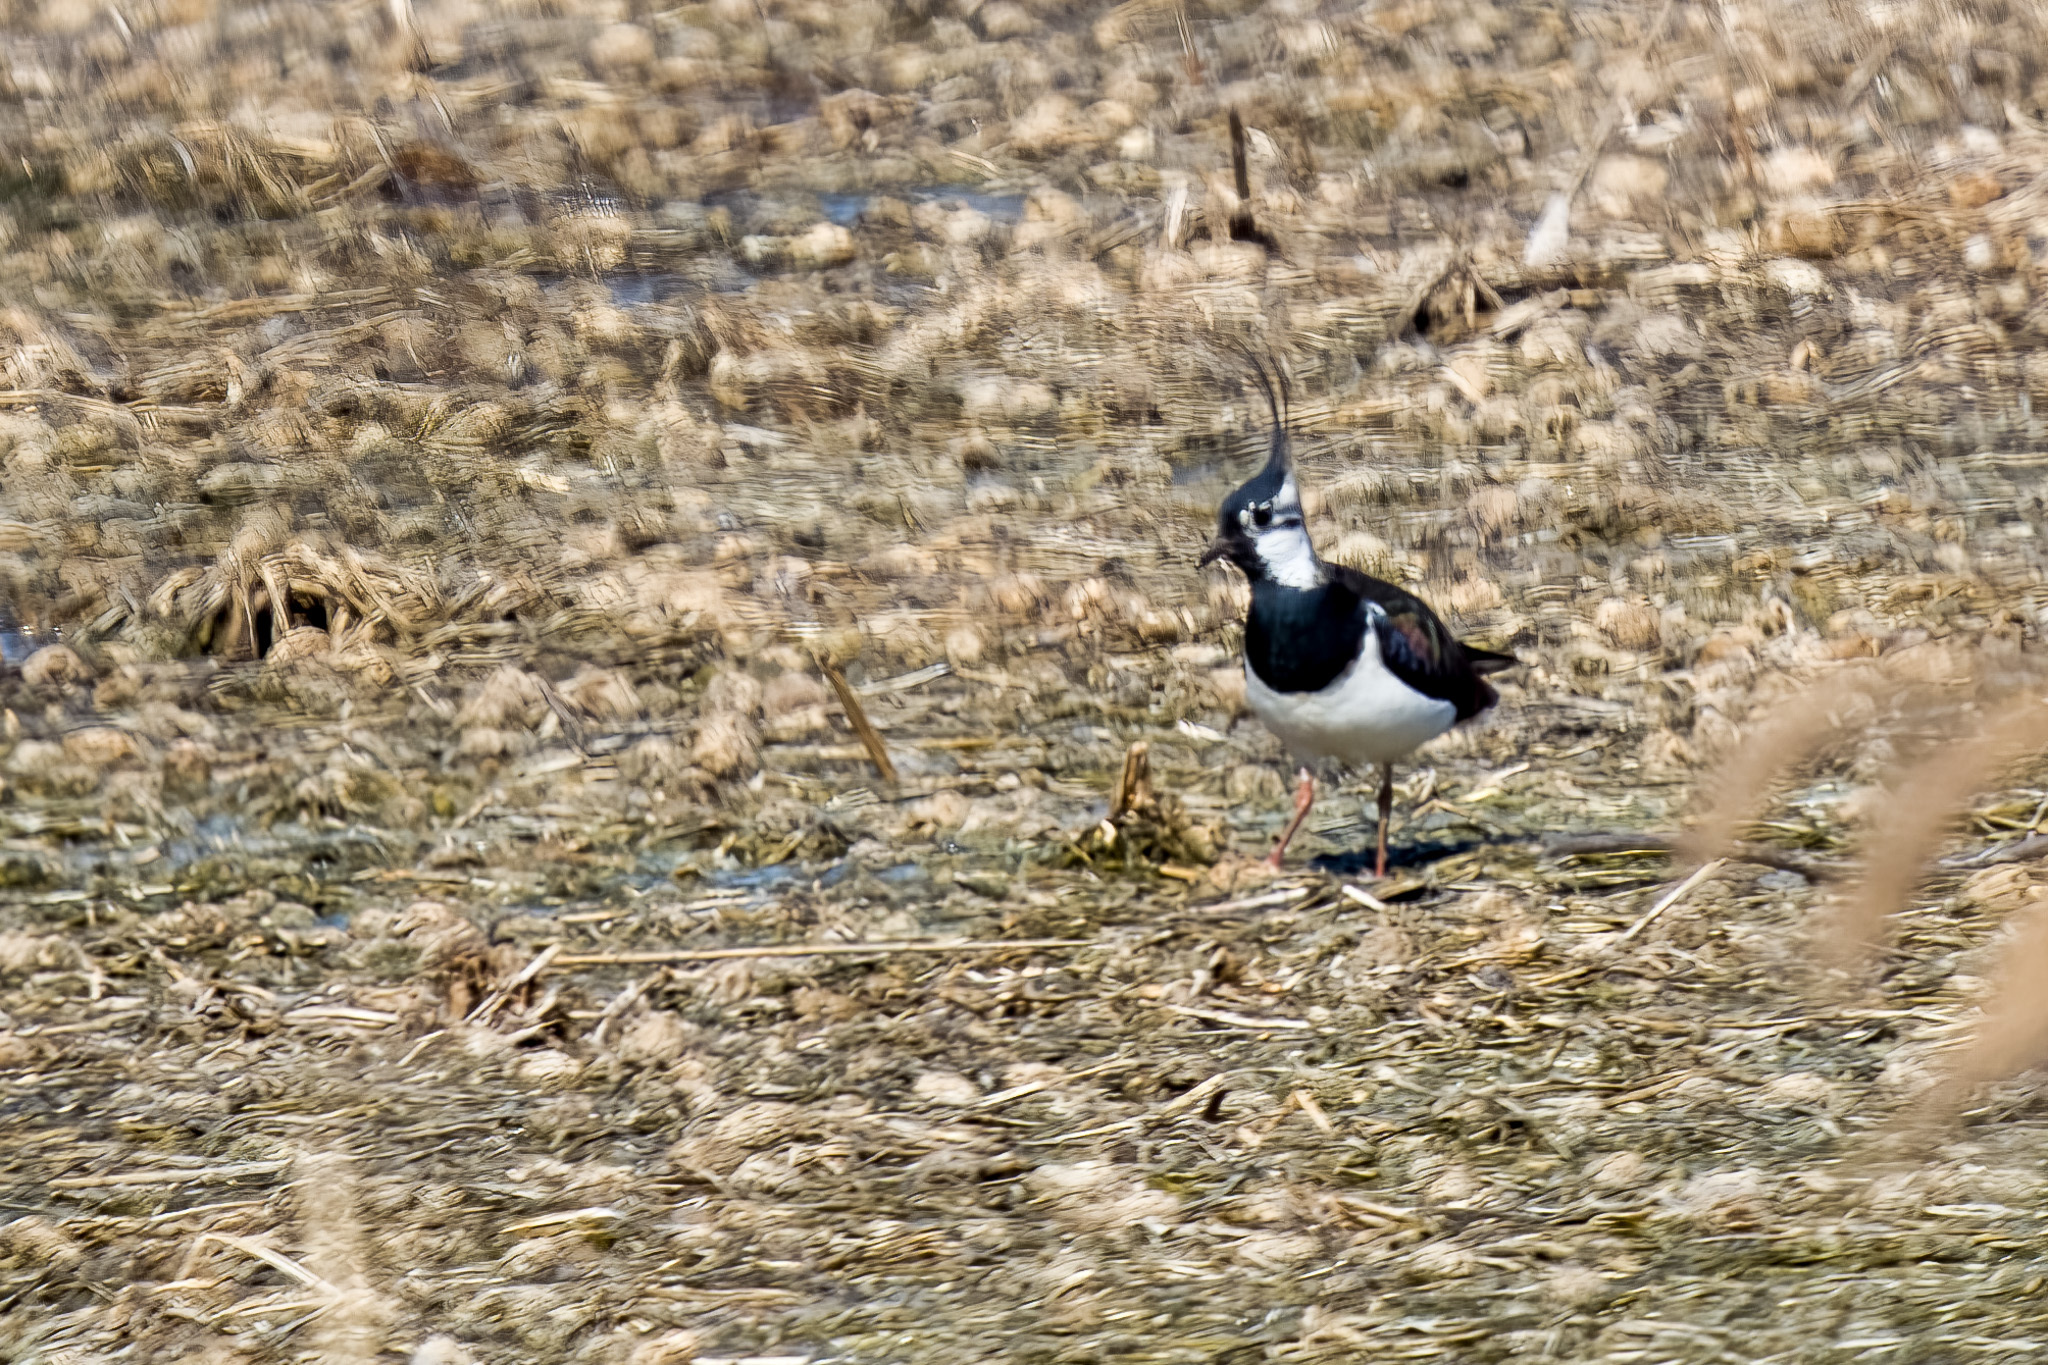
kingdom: Animalia
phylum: Chordata
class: Aves
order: Charadriiformes
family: Charadriidae
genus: Vanellus
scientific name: Vanellus vanellus
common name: Northern lapwing
